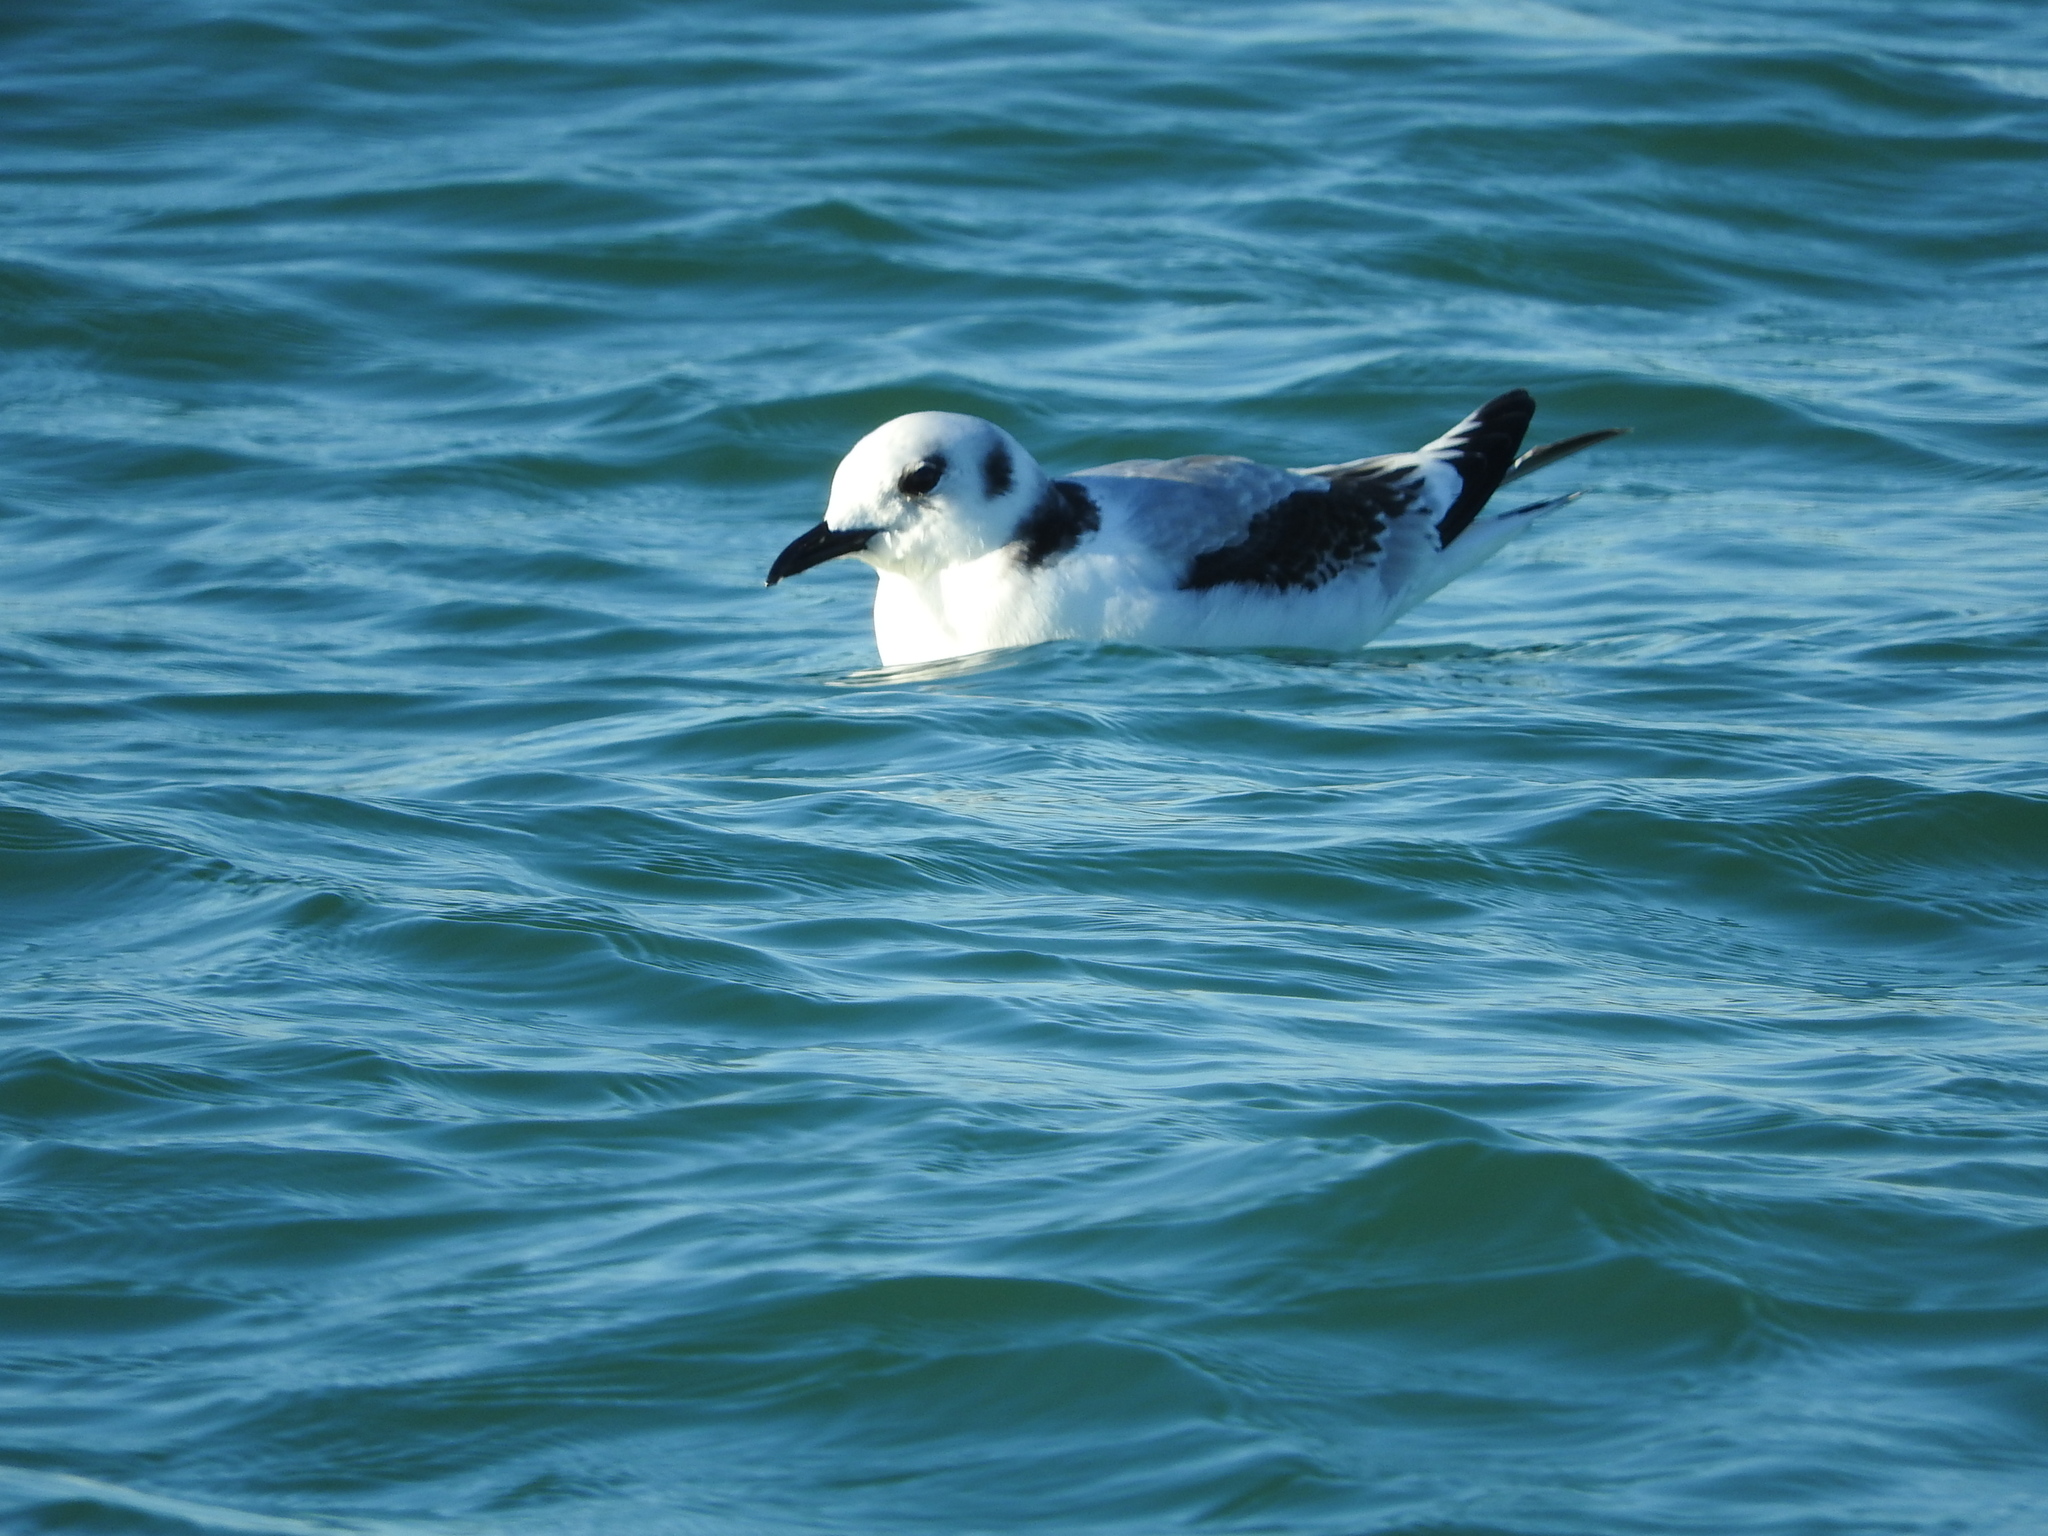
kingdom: Animalia
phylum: Chordata
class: Aves
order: Charadriiformes
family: Laridae
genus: Rissa
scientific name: Rissa tridactyla
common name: Black-legged kittiwake
